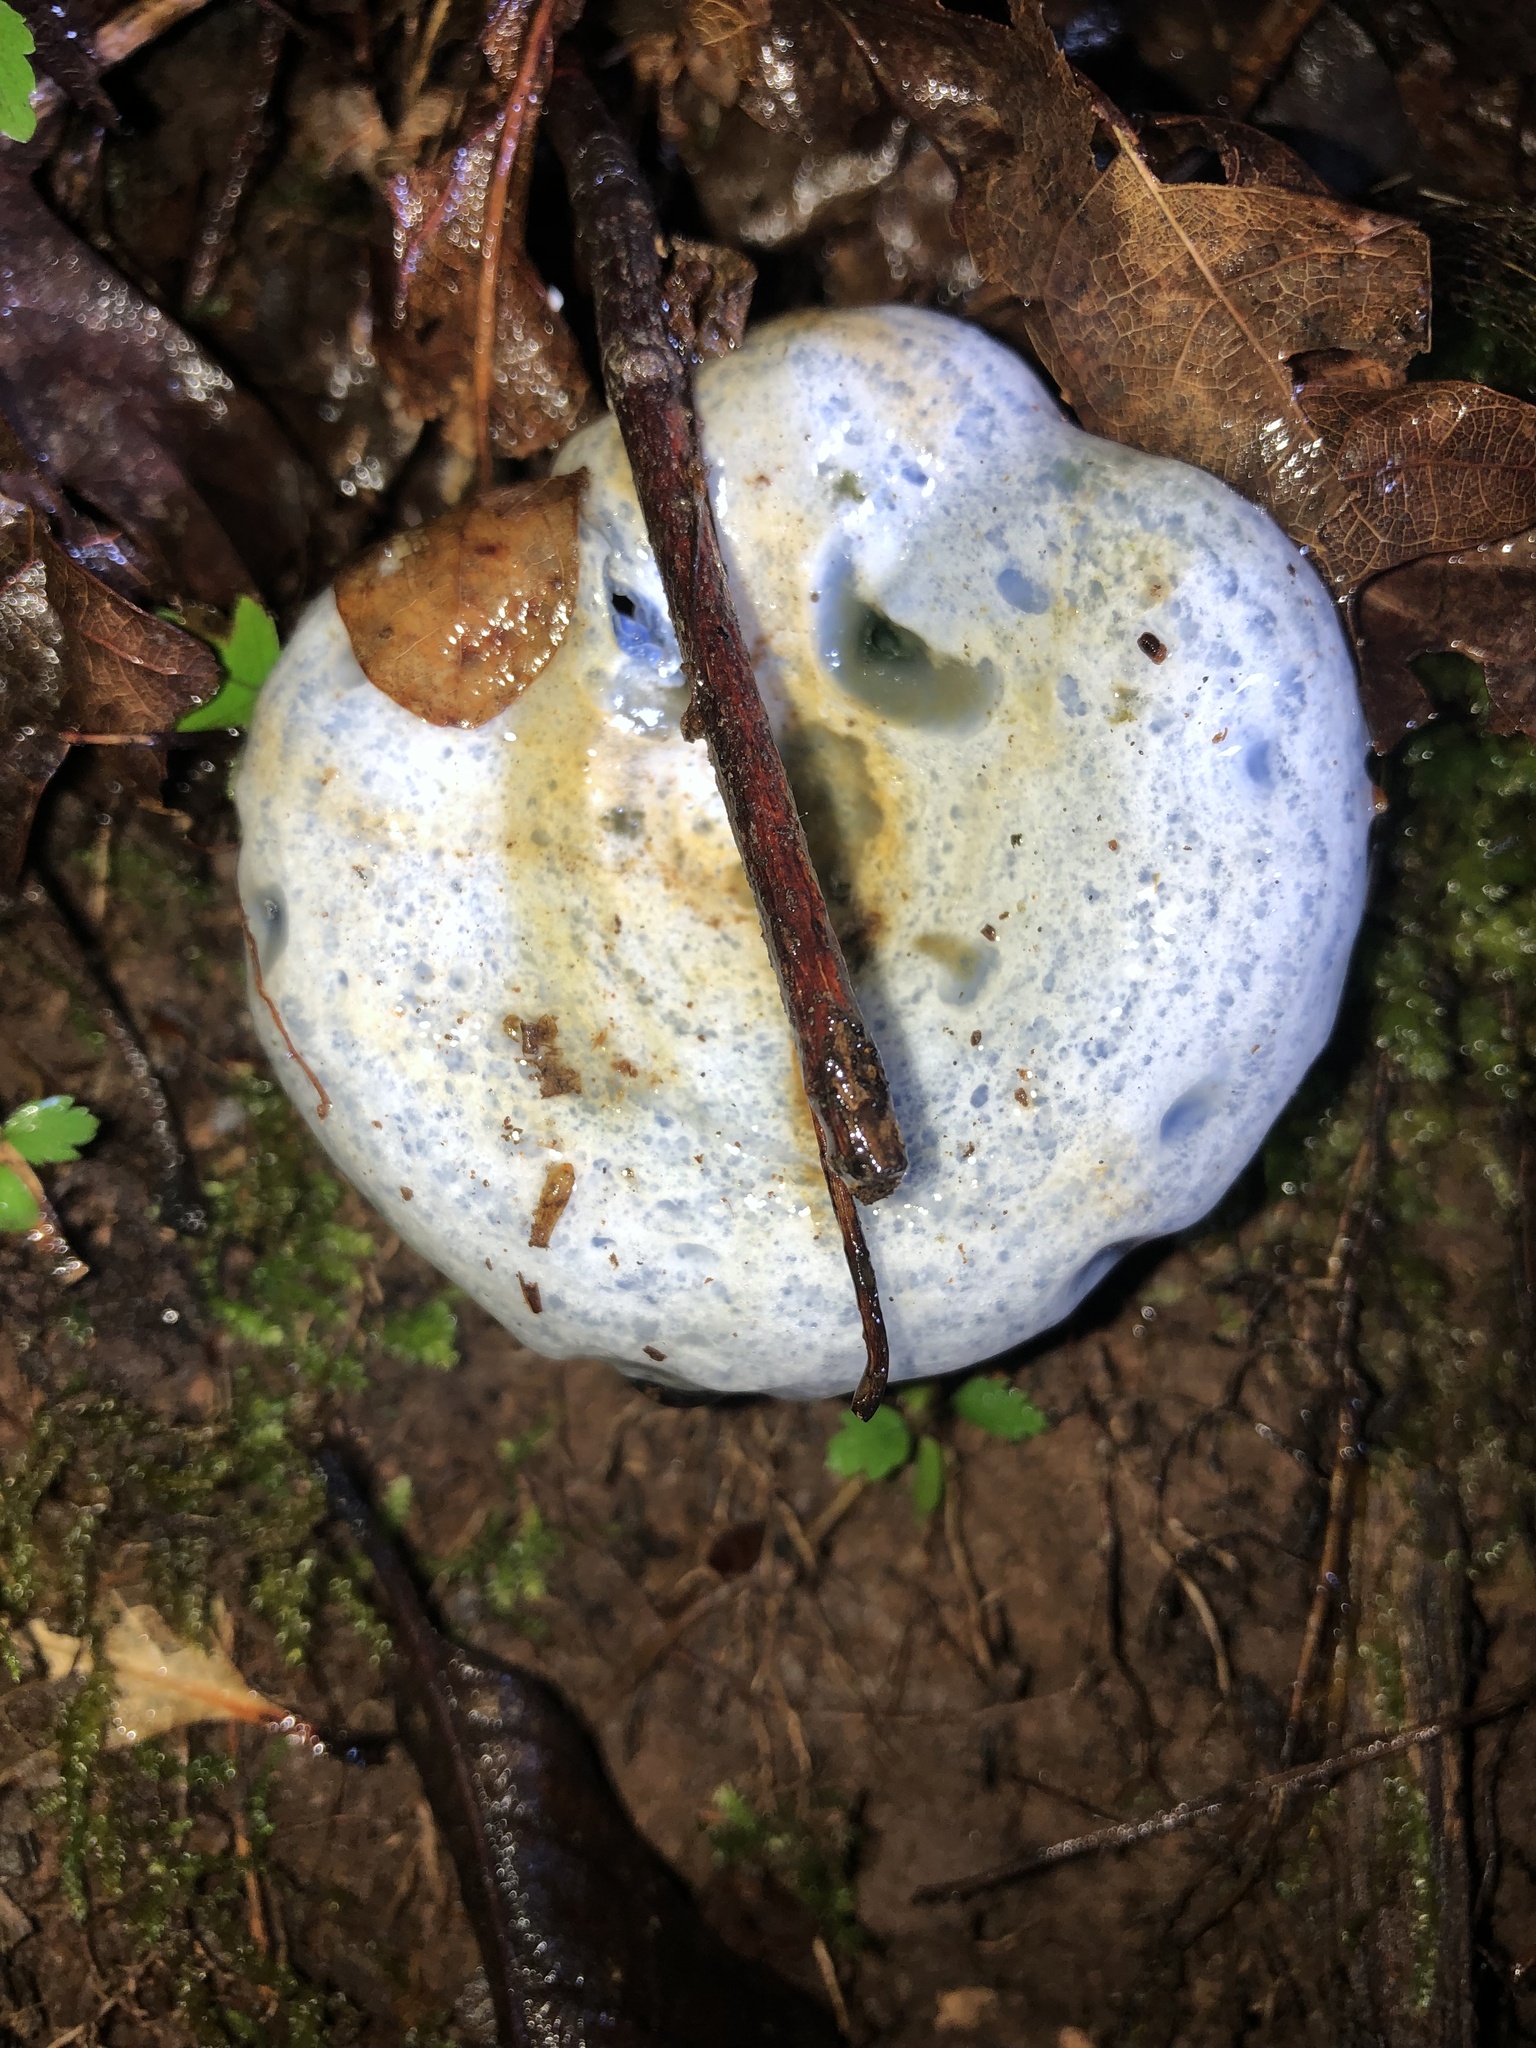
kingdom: Fungi
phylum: Basidiomycota
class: Agaricomycetes
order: Russulales
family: Russulaceae
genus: Lactarius
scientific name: Lactarius indigo
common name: Indigo milk cap
